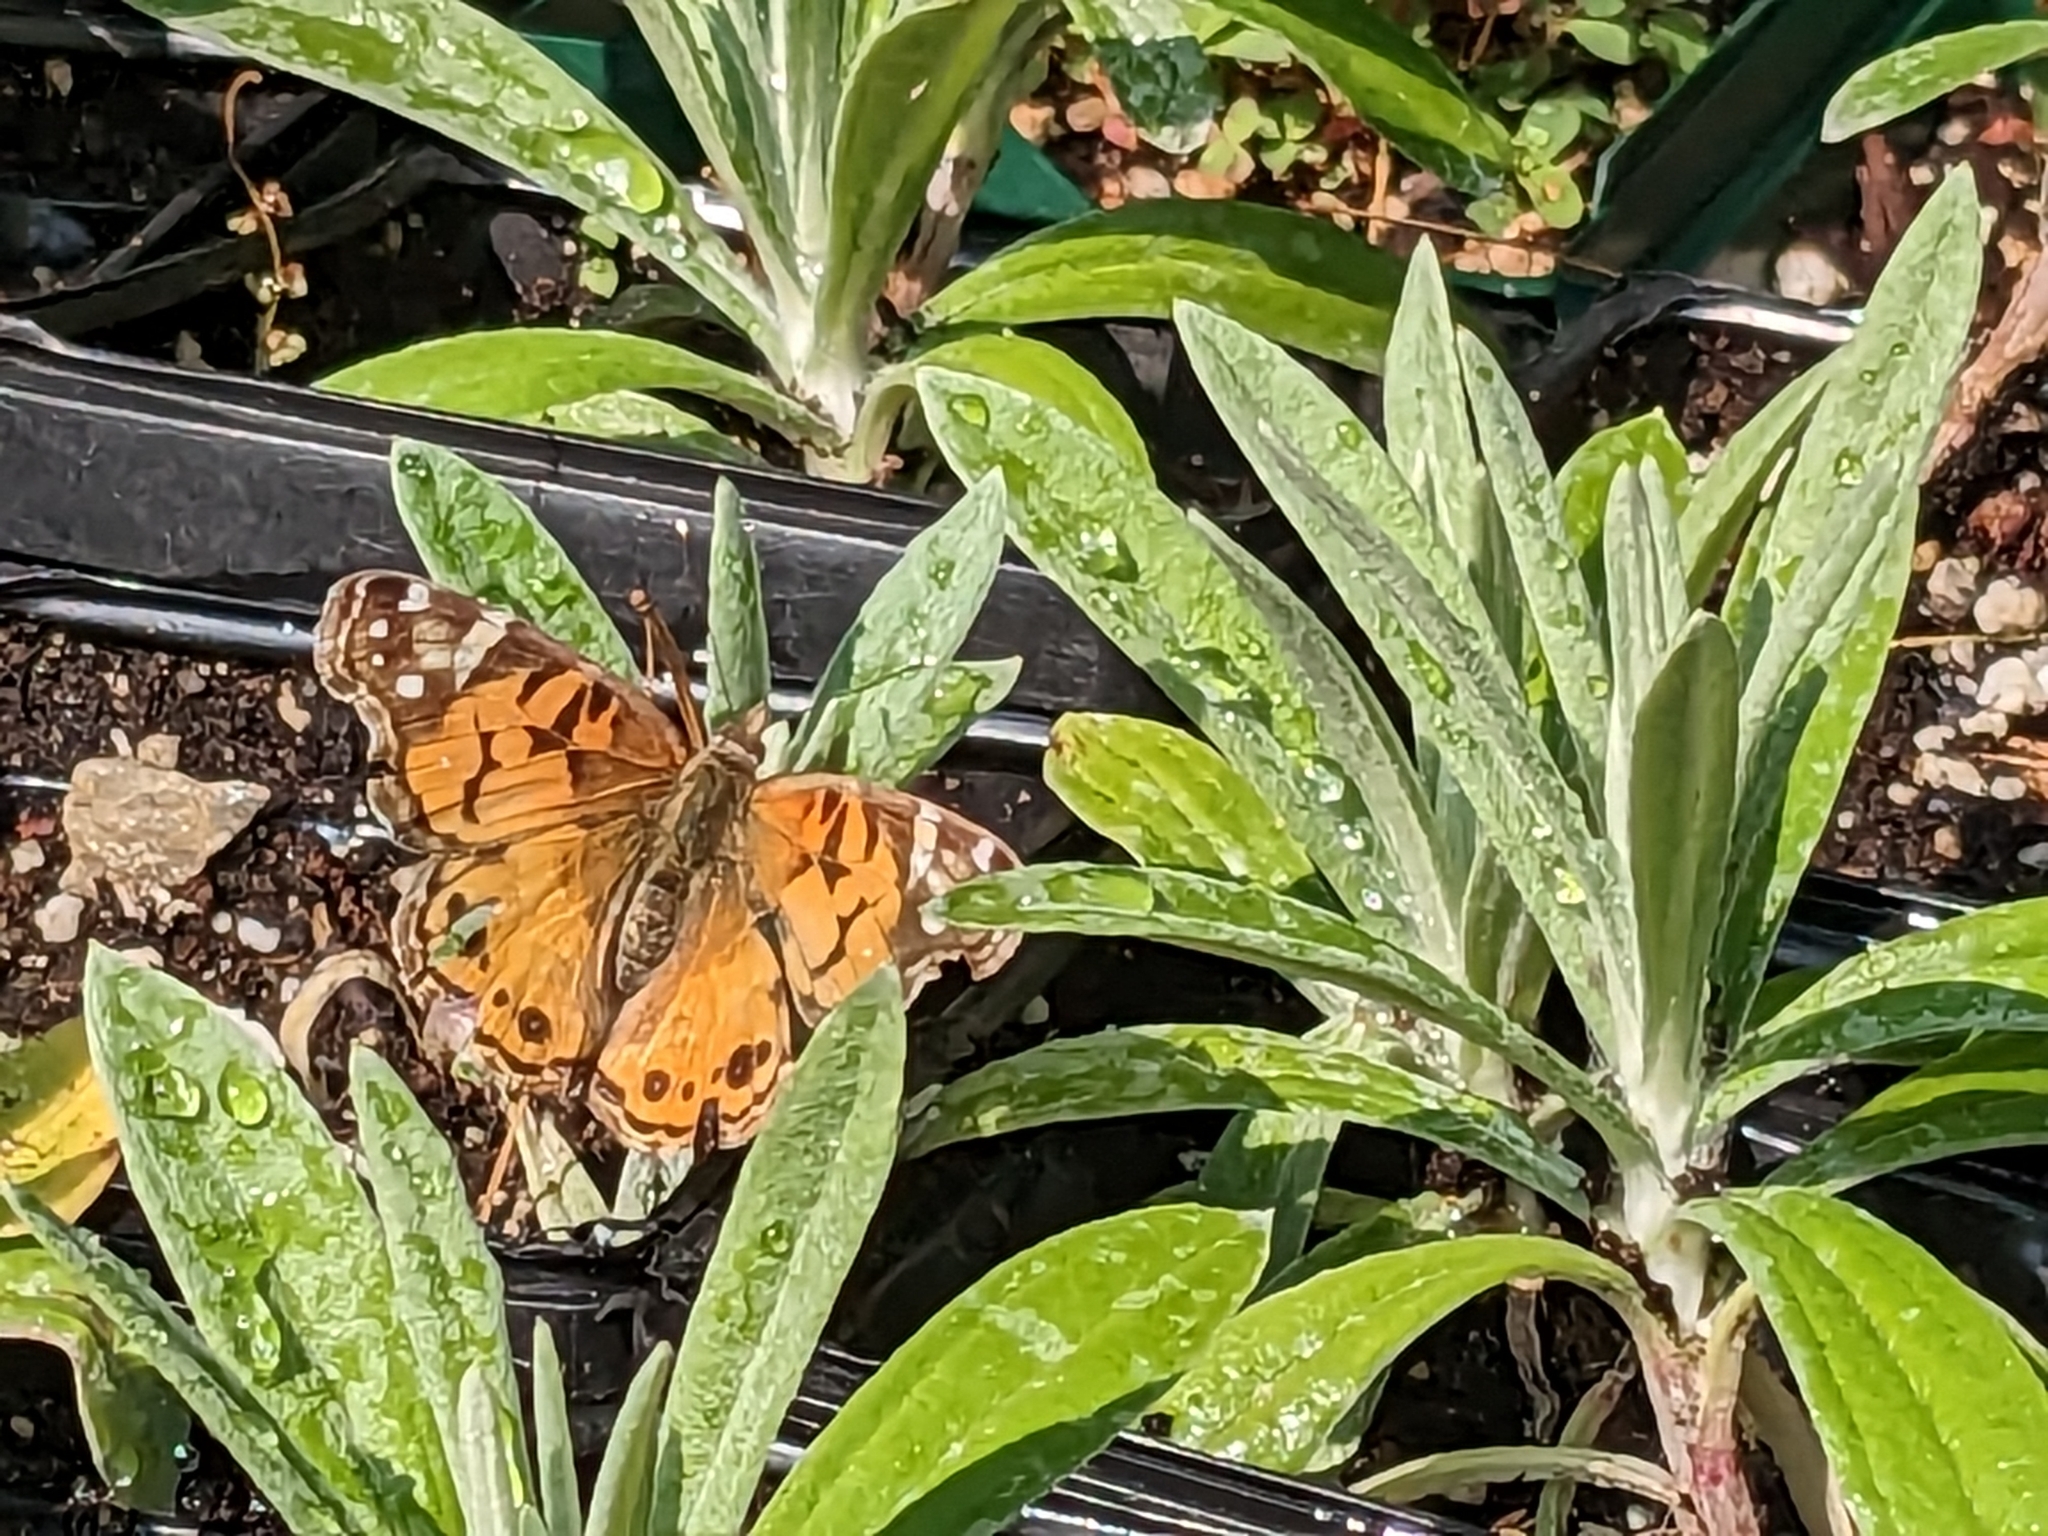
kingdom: Animalia
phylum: Arthropoda
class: Insecta
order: Lepidoptera
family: Nymphalidae
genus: Vanessa
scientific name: Vanessa virginiensis
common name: American lady
